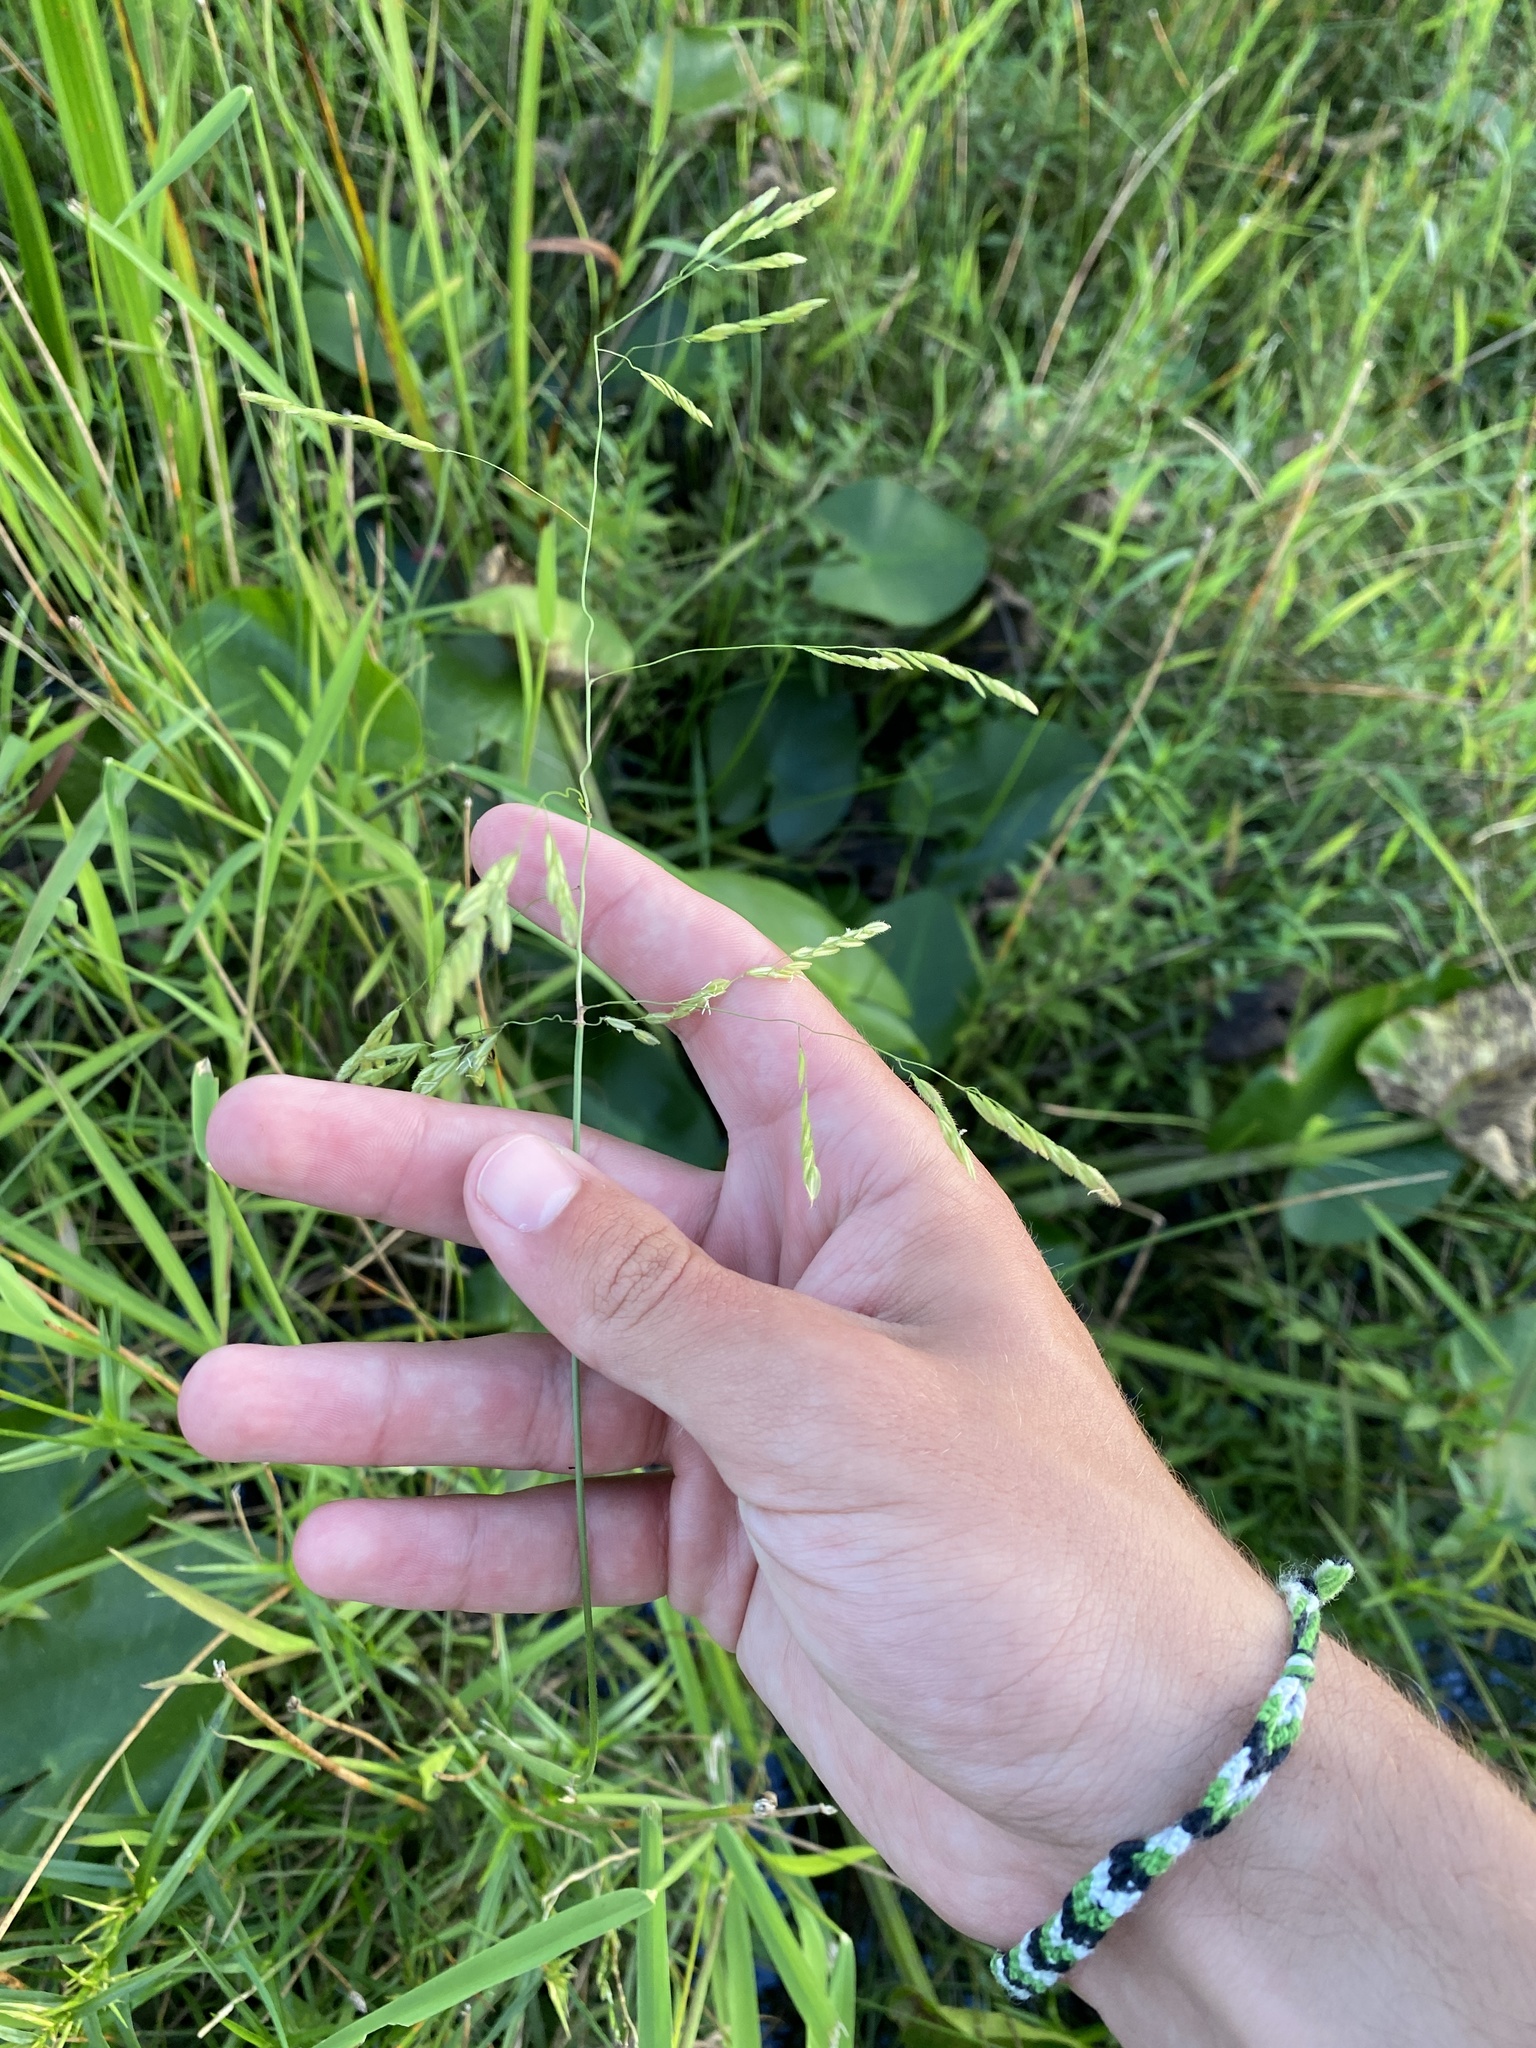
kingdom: Plantae
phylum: Tracheophyta
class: Liliopsida
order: Poales
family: Poaceae
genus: Leersia
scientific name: Leersia oryzoides
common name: Cut-grass
